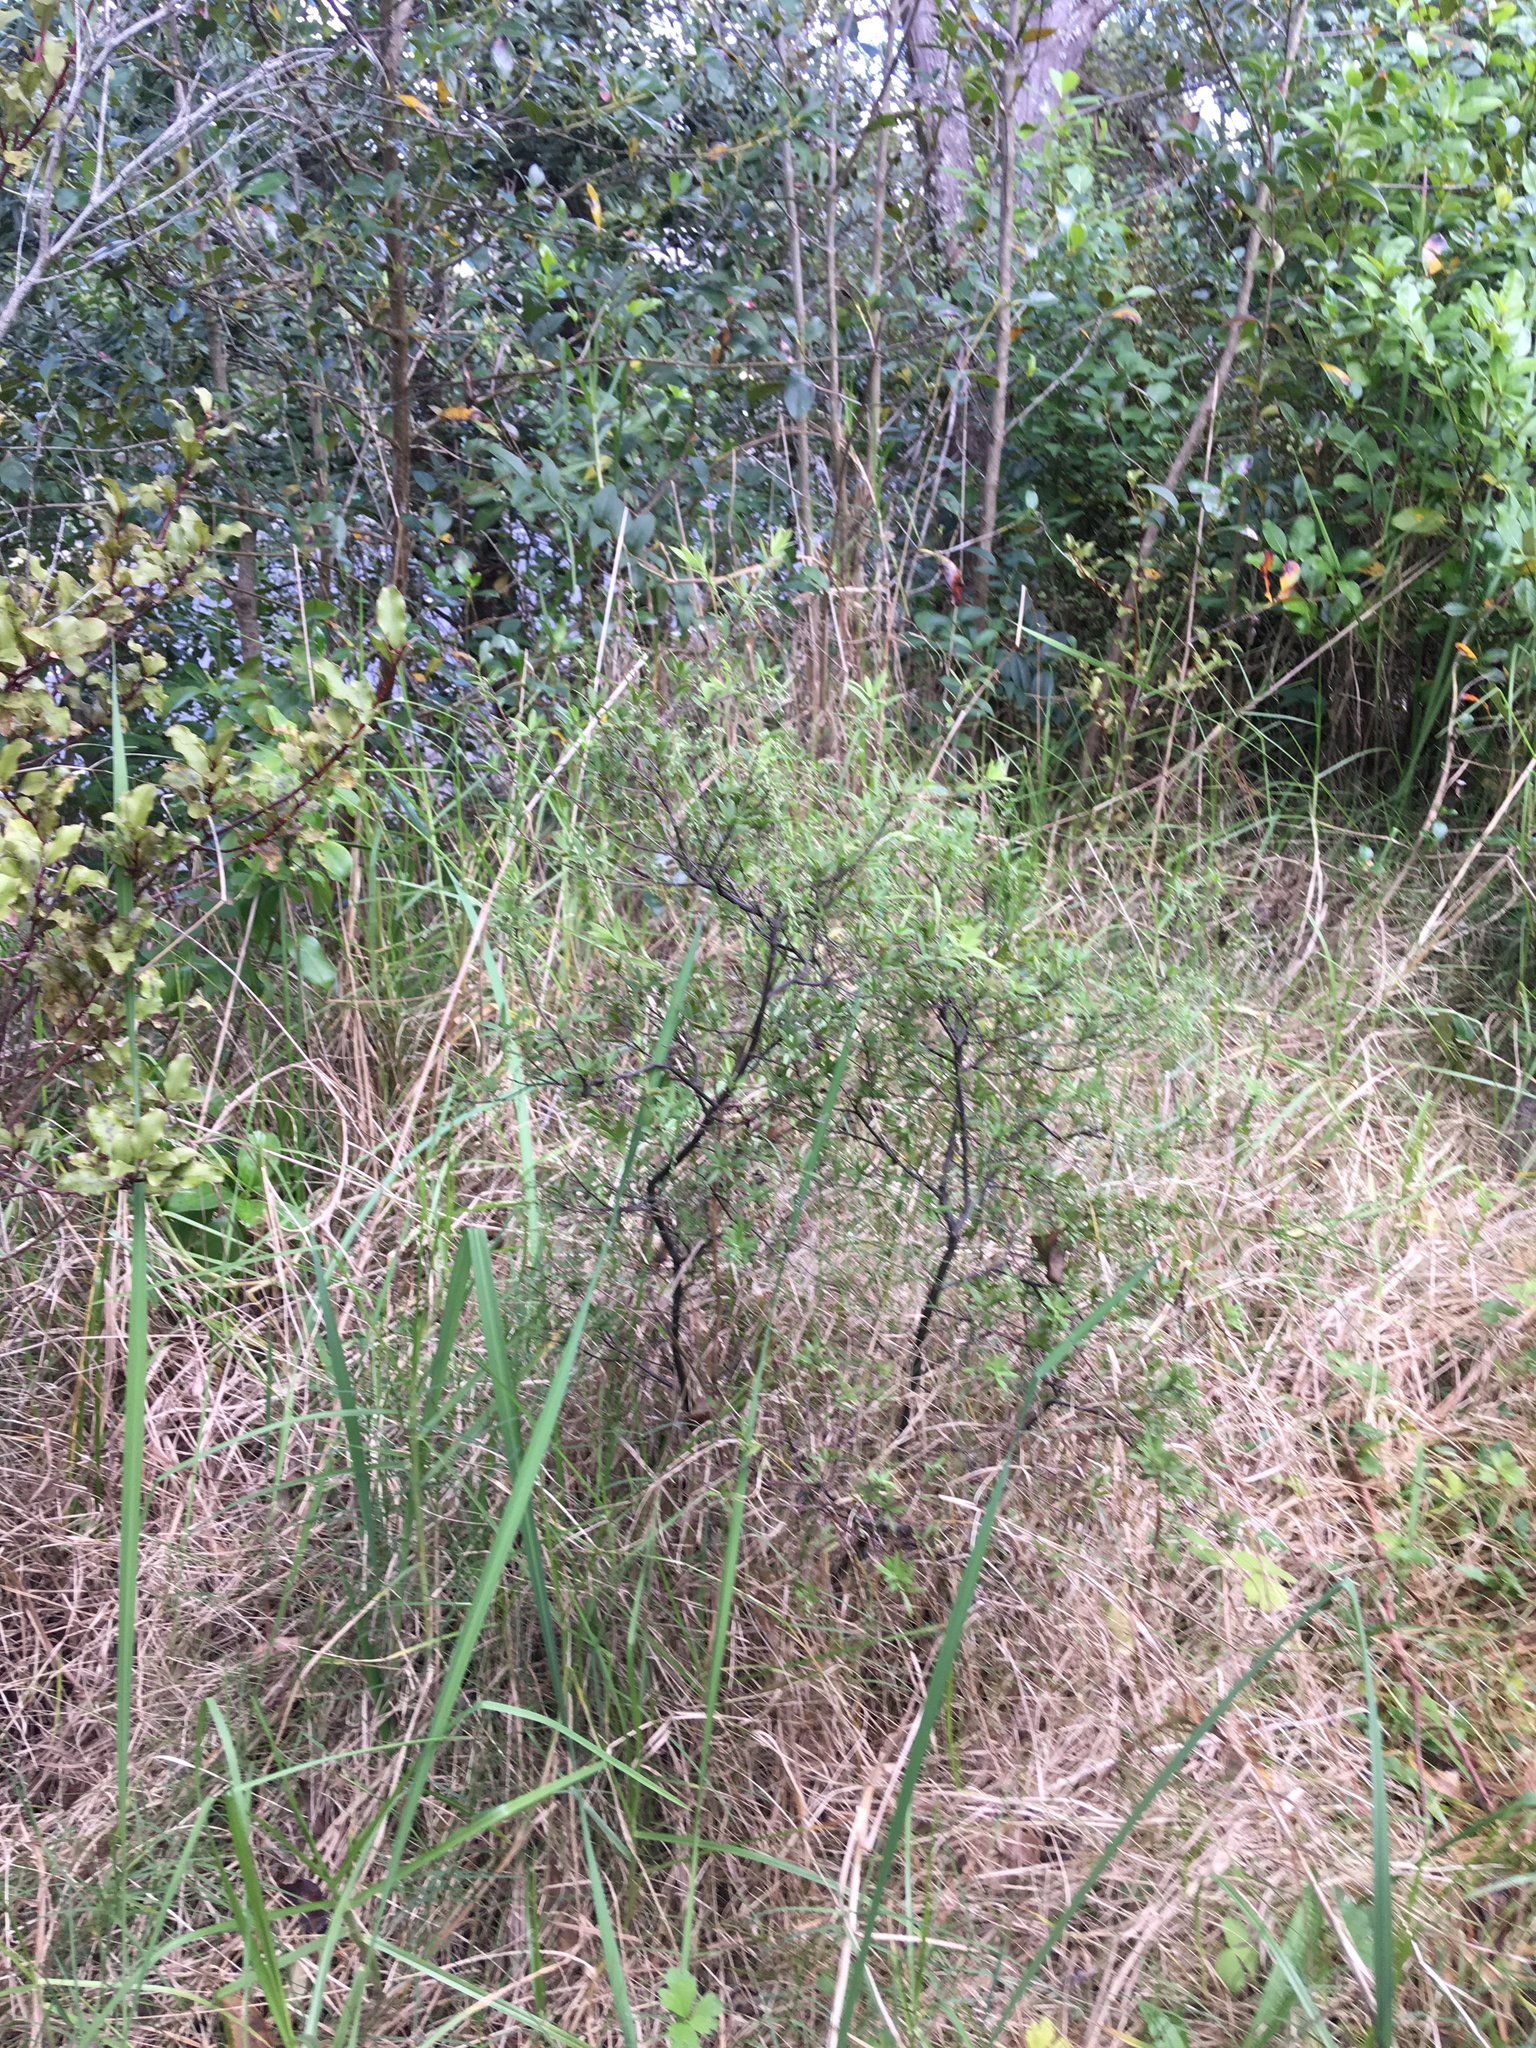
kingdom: Plantae
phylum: Tracheophyta
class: Magnoliopsida
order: Ericales
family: Ericaceae
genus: Leucopogon
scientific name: Leucopogon fasciculatus
